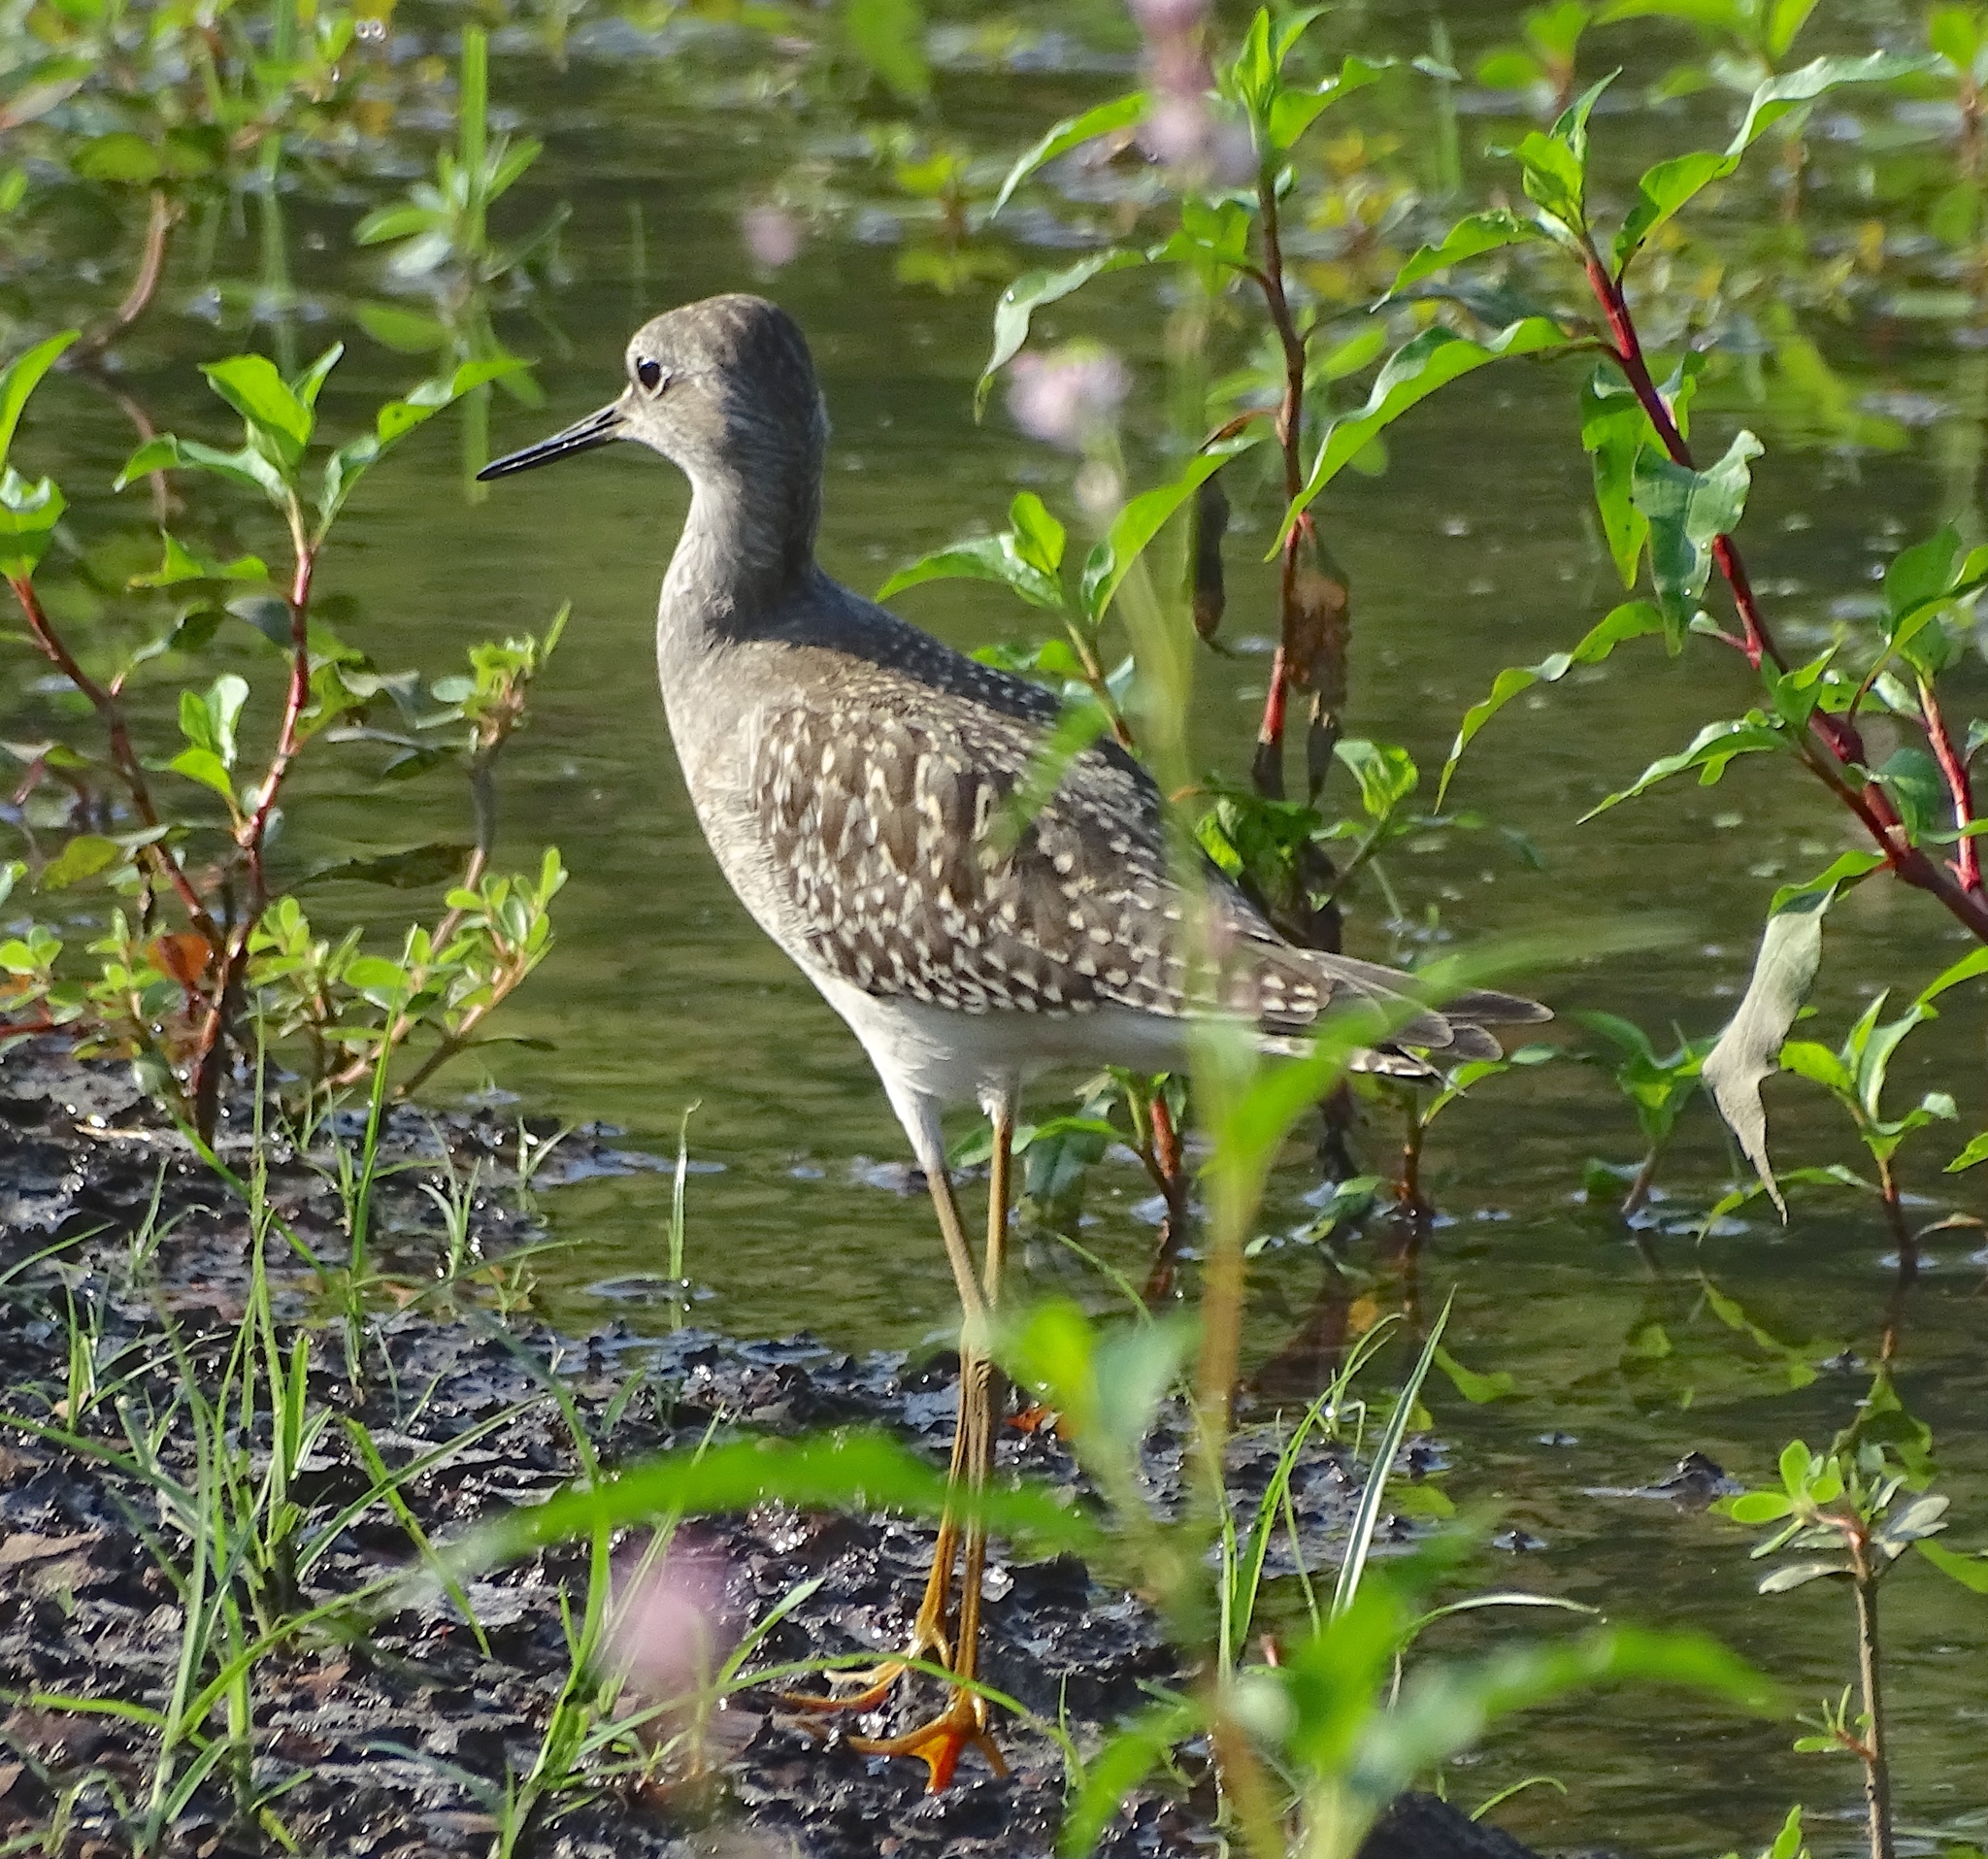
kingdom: Animalia
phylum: Chordata
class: Aves
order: Charadriiformes
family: Scolopacidae
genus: Tringa
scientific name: Tringa flavipes
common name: Lesser yellowlegs
